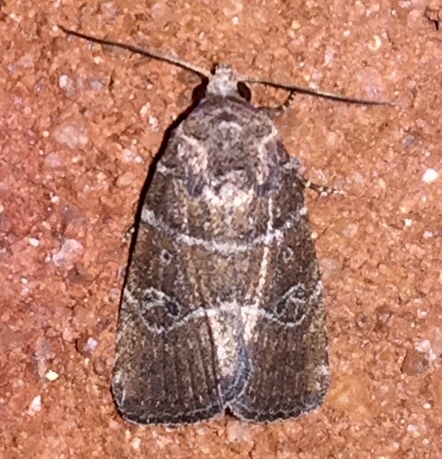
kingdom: Animalia
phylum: Arthropoda
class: Insecta
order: Lepidoptera
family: Noctuidae
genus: Elaphria
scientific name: Elaphria grata
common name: Grateful midget moth
